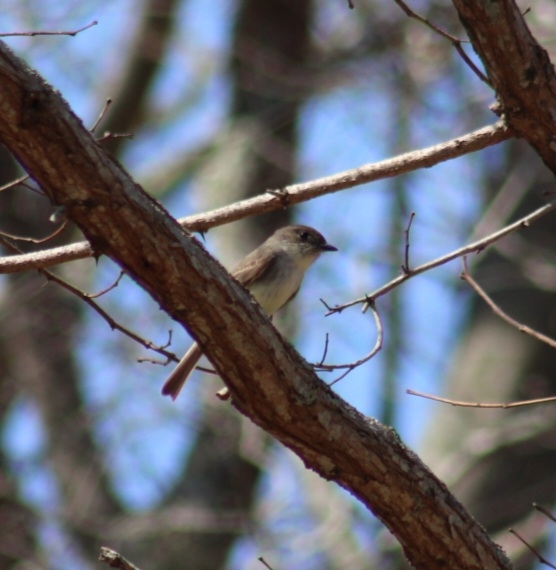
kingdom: Animalia
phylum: Chordata
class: Aves
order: Passeriformes
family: Tyrannidae
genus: Sayornis
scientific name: Sayornis phoebe
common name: Eastern phoebe
